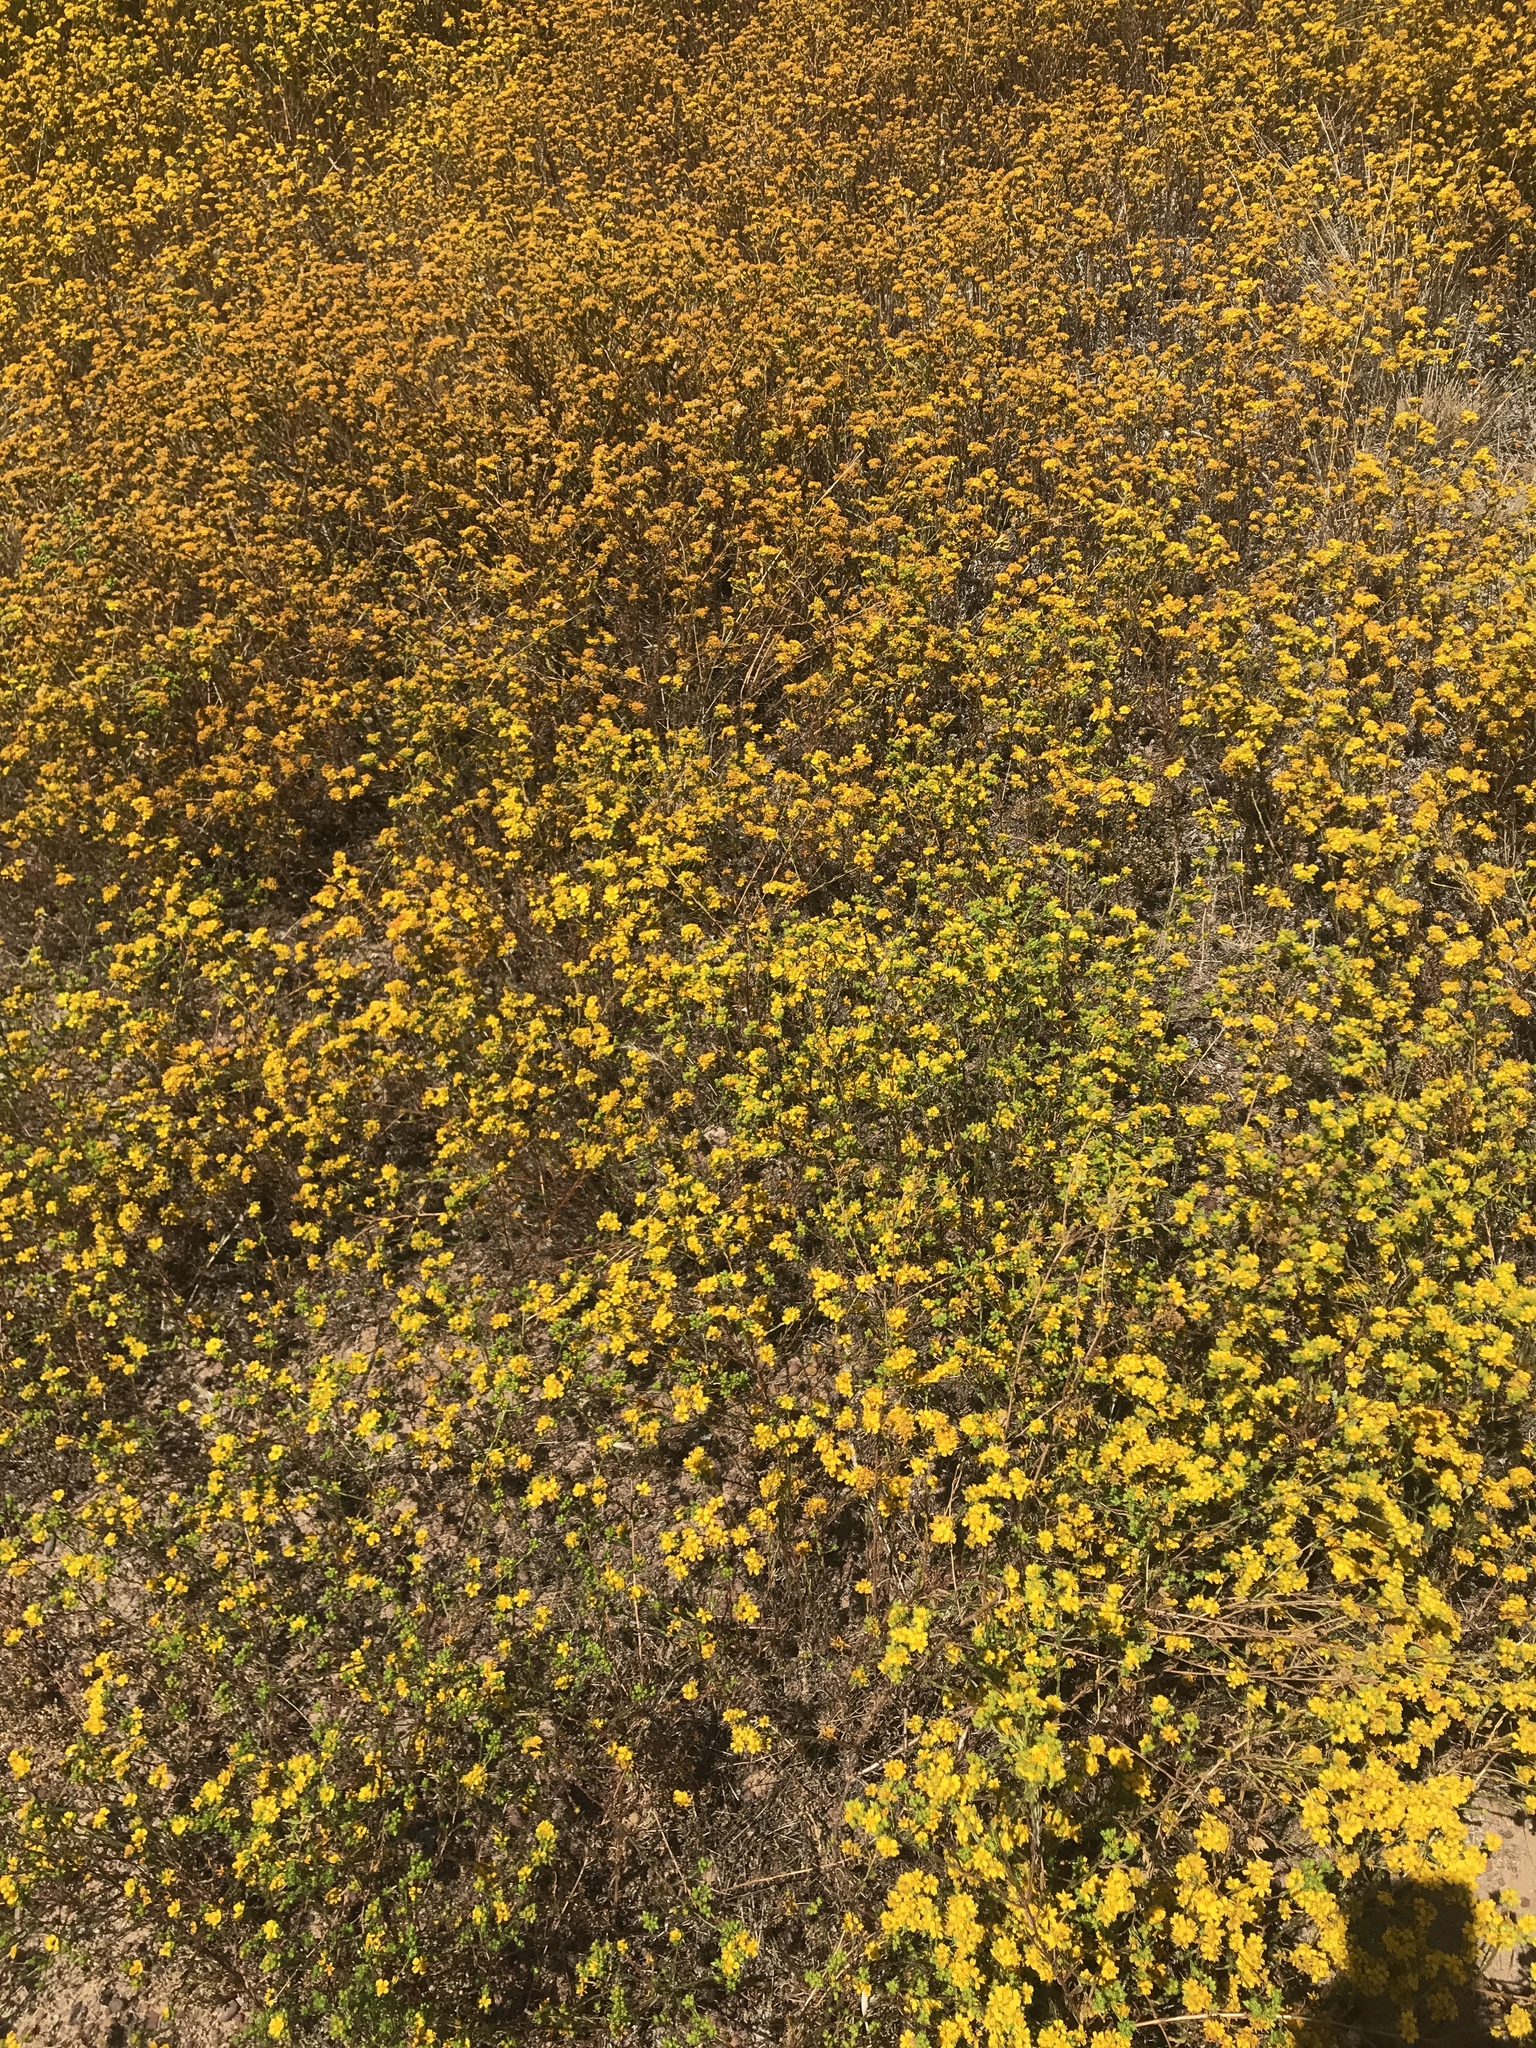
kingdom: Plantae
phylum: Tracheophyta
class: Magnoliopsida
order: Asterales
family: Asteraceae
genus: Deinandra
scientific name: Deinandra fasciculata
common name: Clustered tarweed
